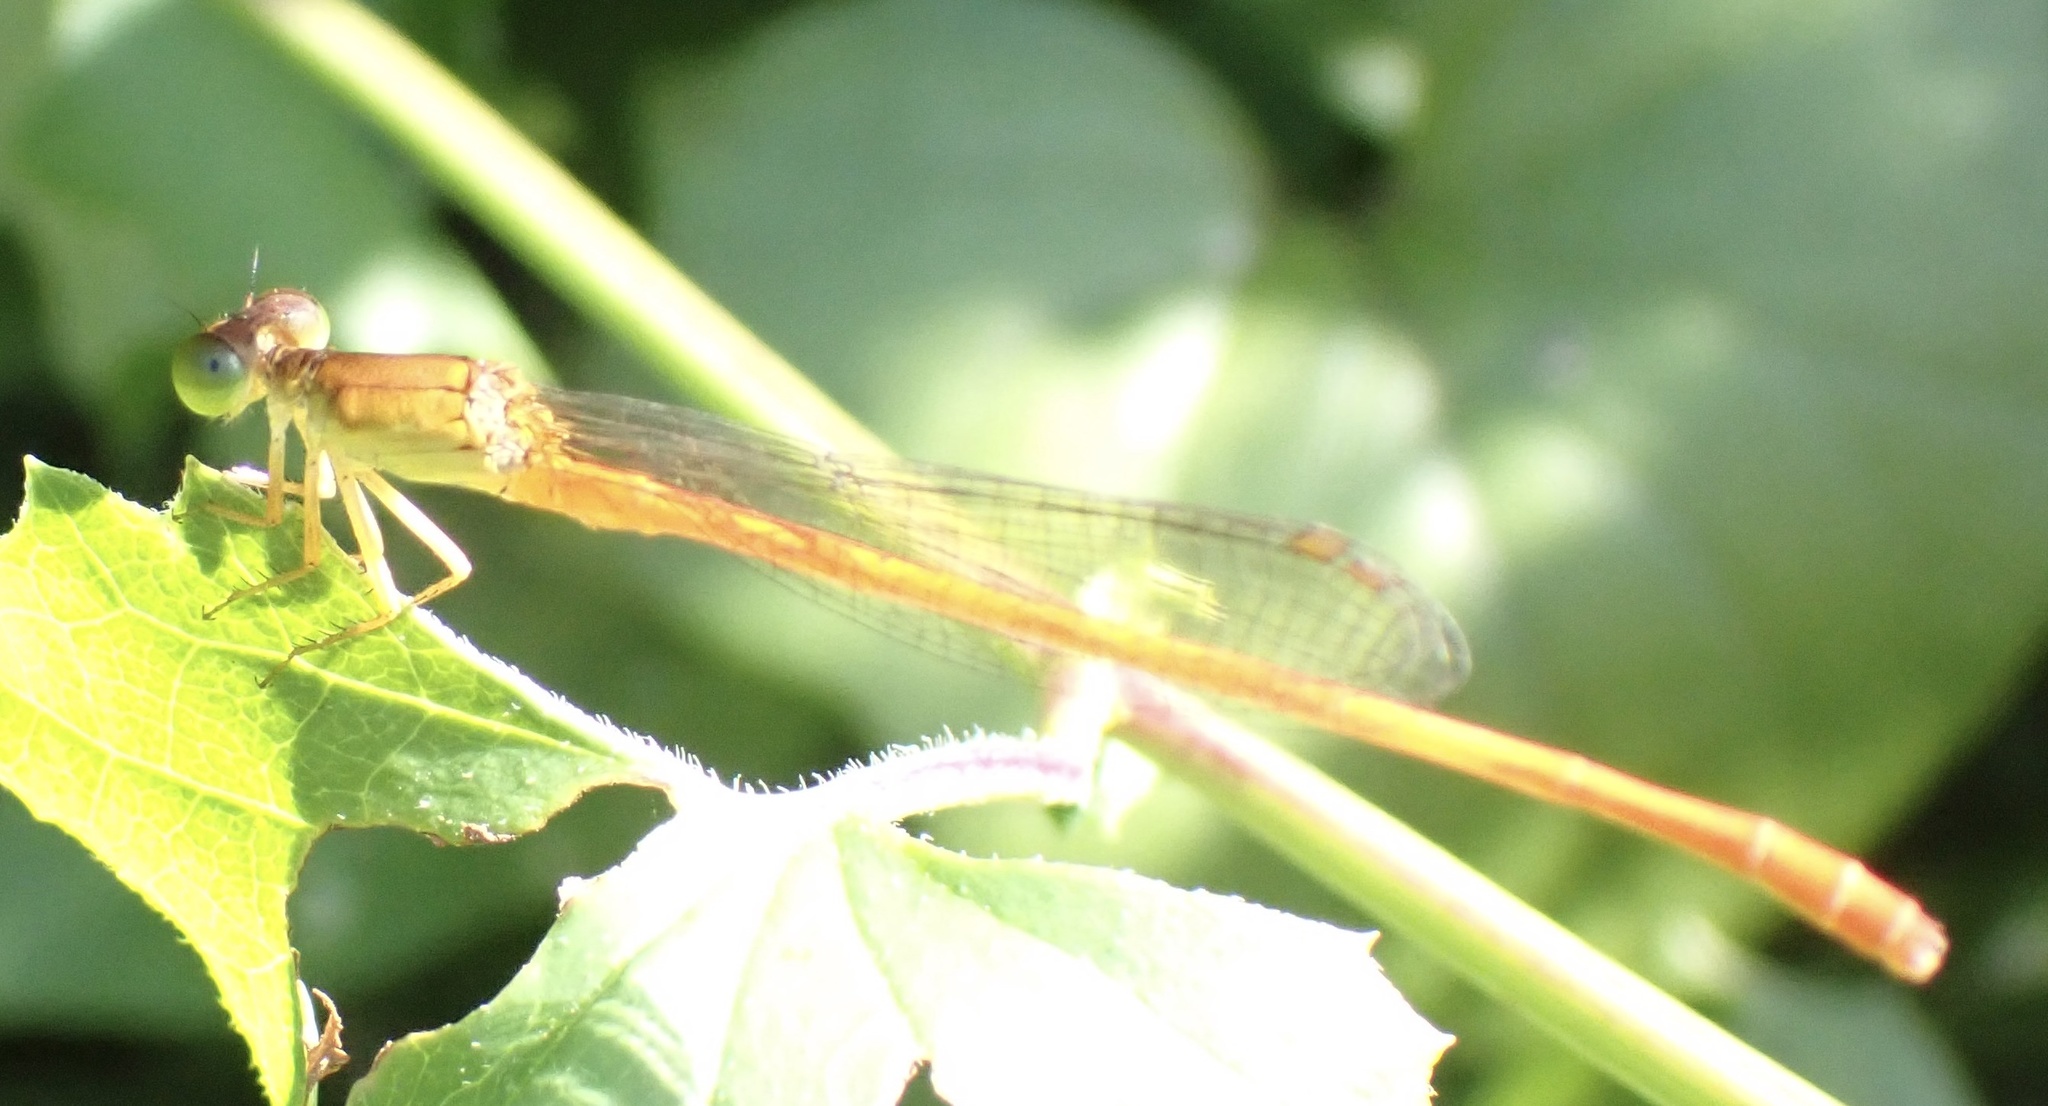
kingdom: Animalia
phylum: Arthropoda
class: Insecta
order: Odonata
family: Coenagrionidae
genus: Ceriagrion
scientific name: Ceriagrion glabrum
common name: Common pond damsel
